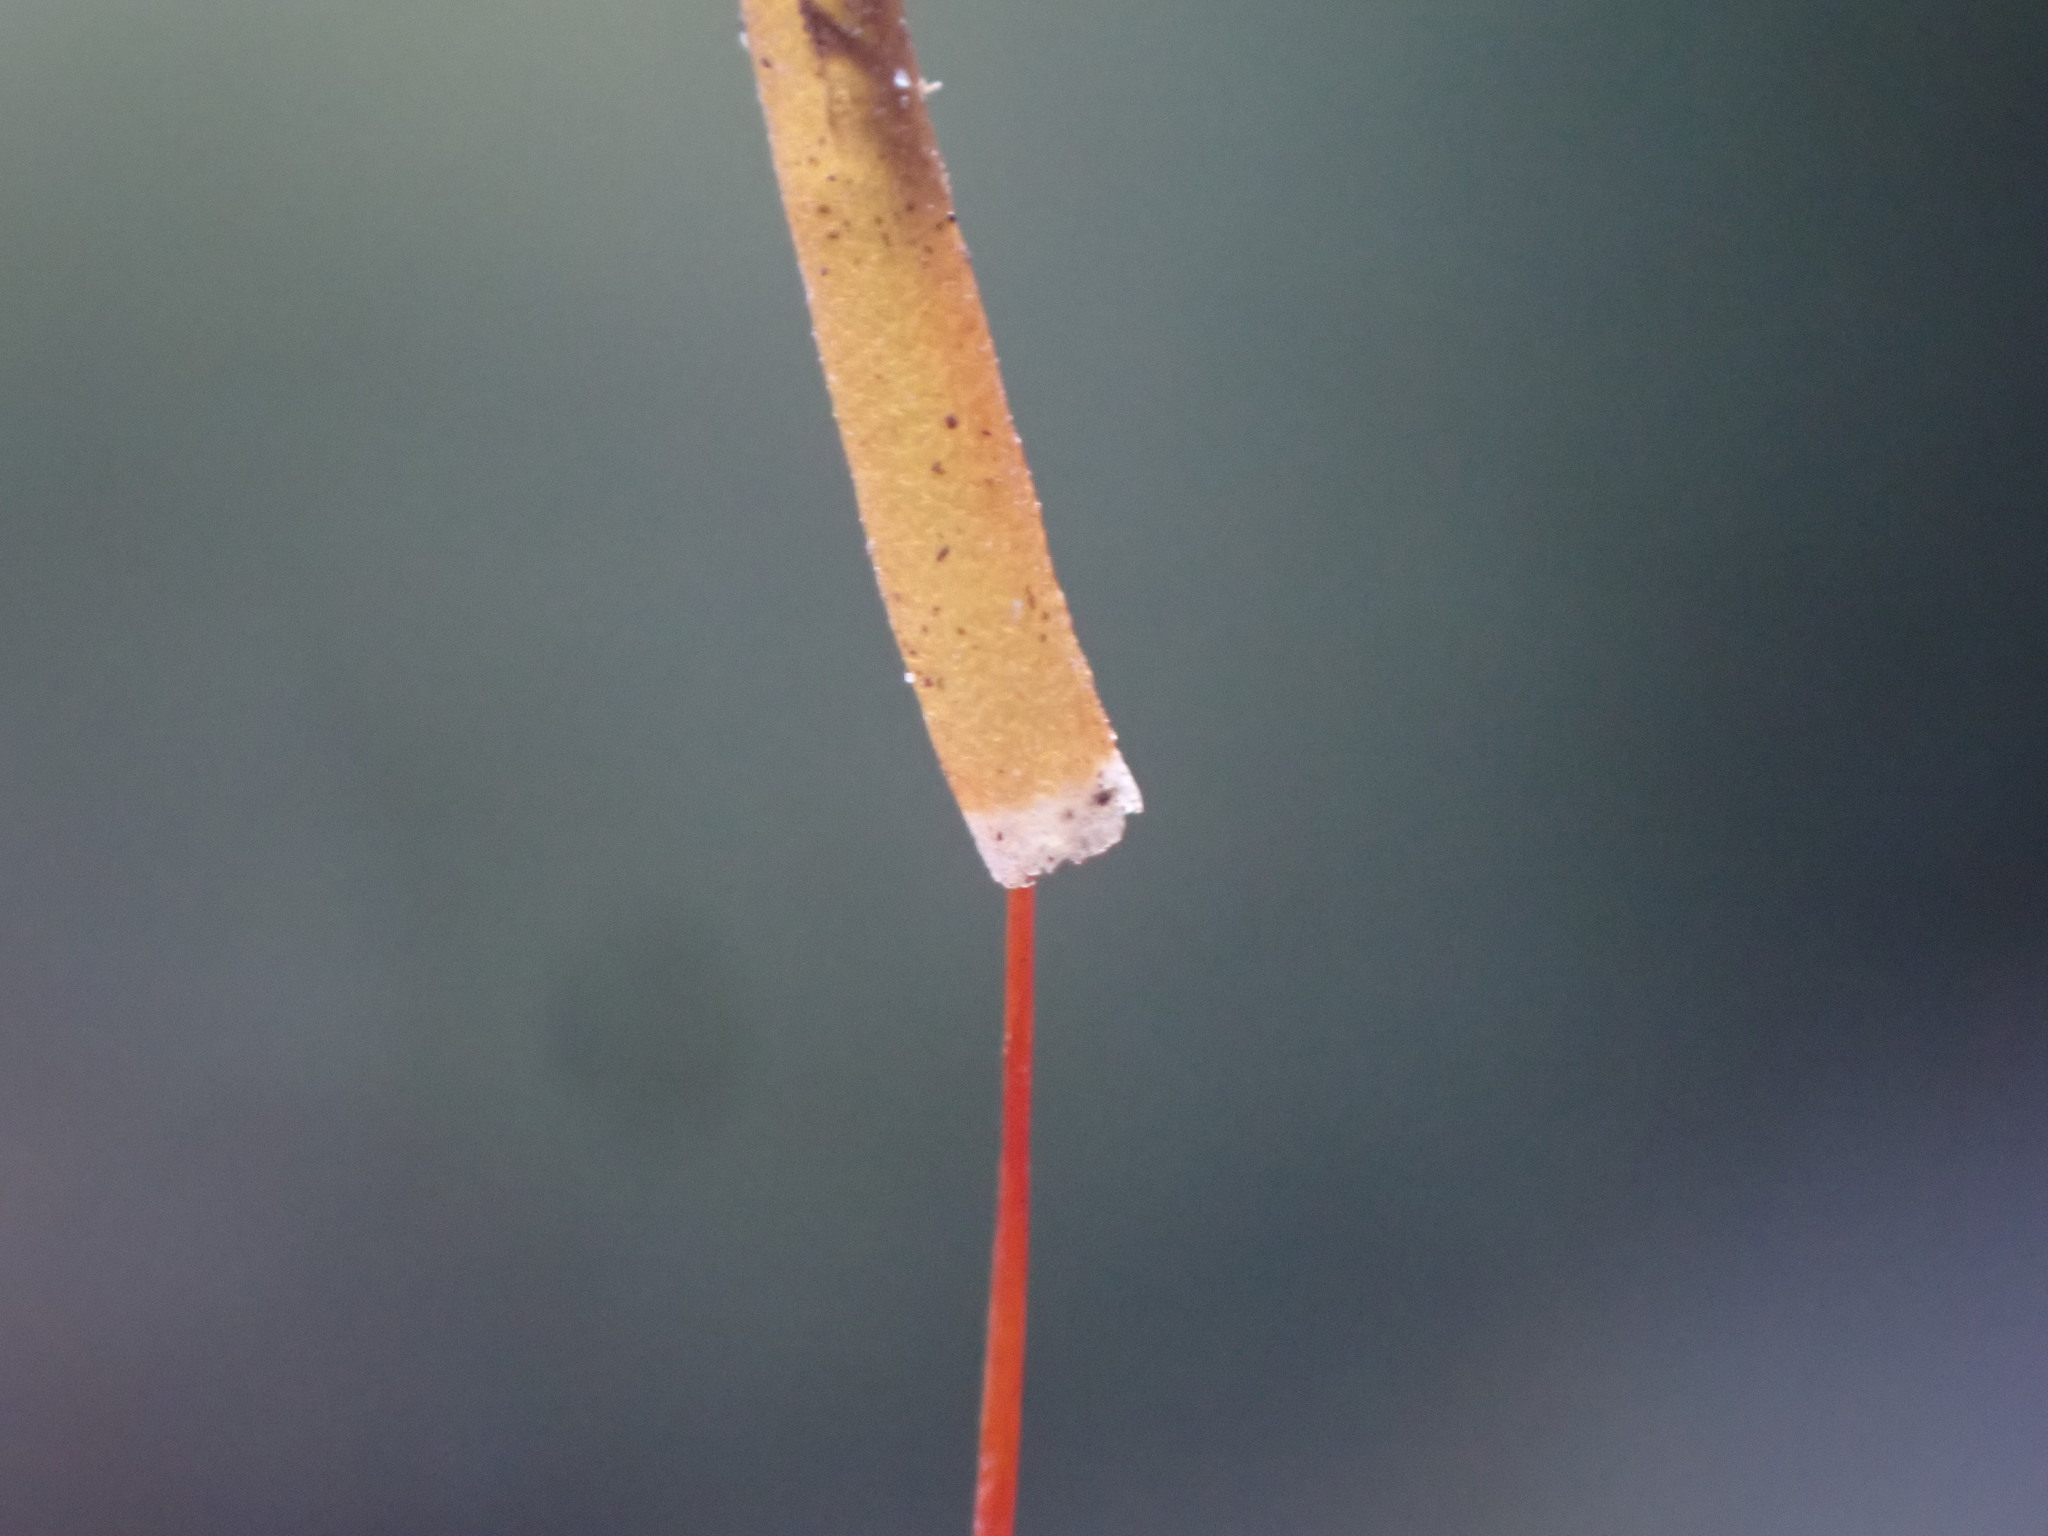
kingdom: Plantae
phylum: Bryophyta
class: Bryopsida
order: Encalyptales
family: Encalyptaceae
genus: Encalypta
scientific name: Encalypta procera
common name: Spiral extinguisher moss
